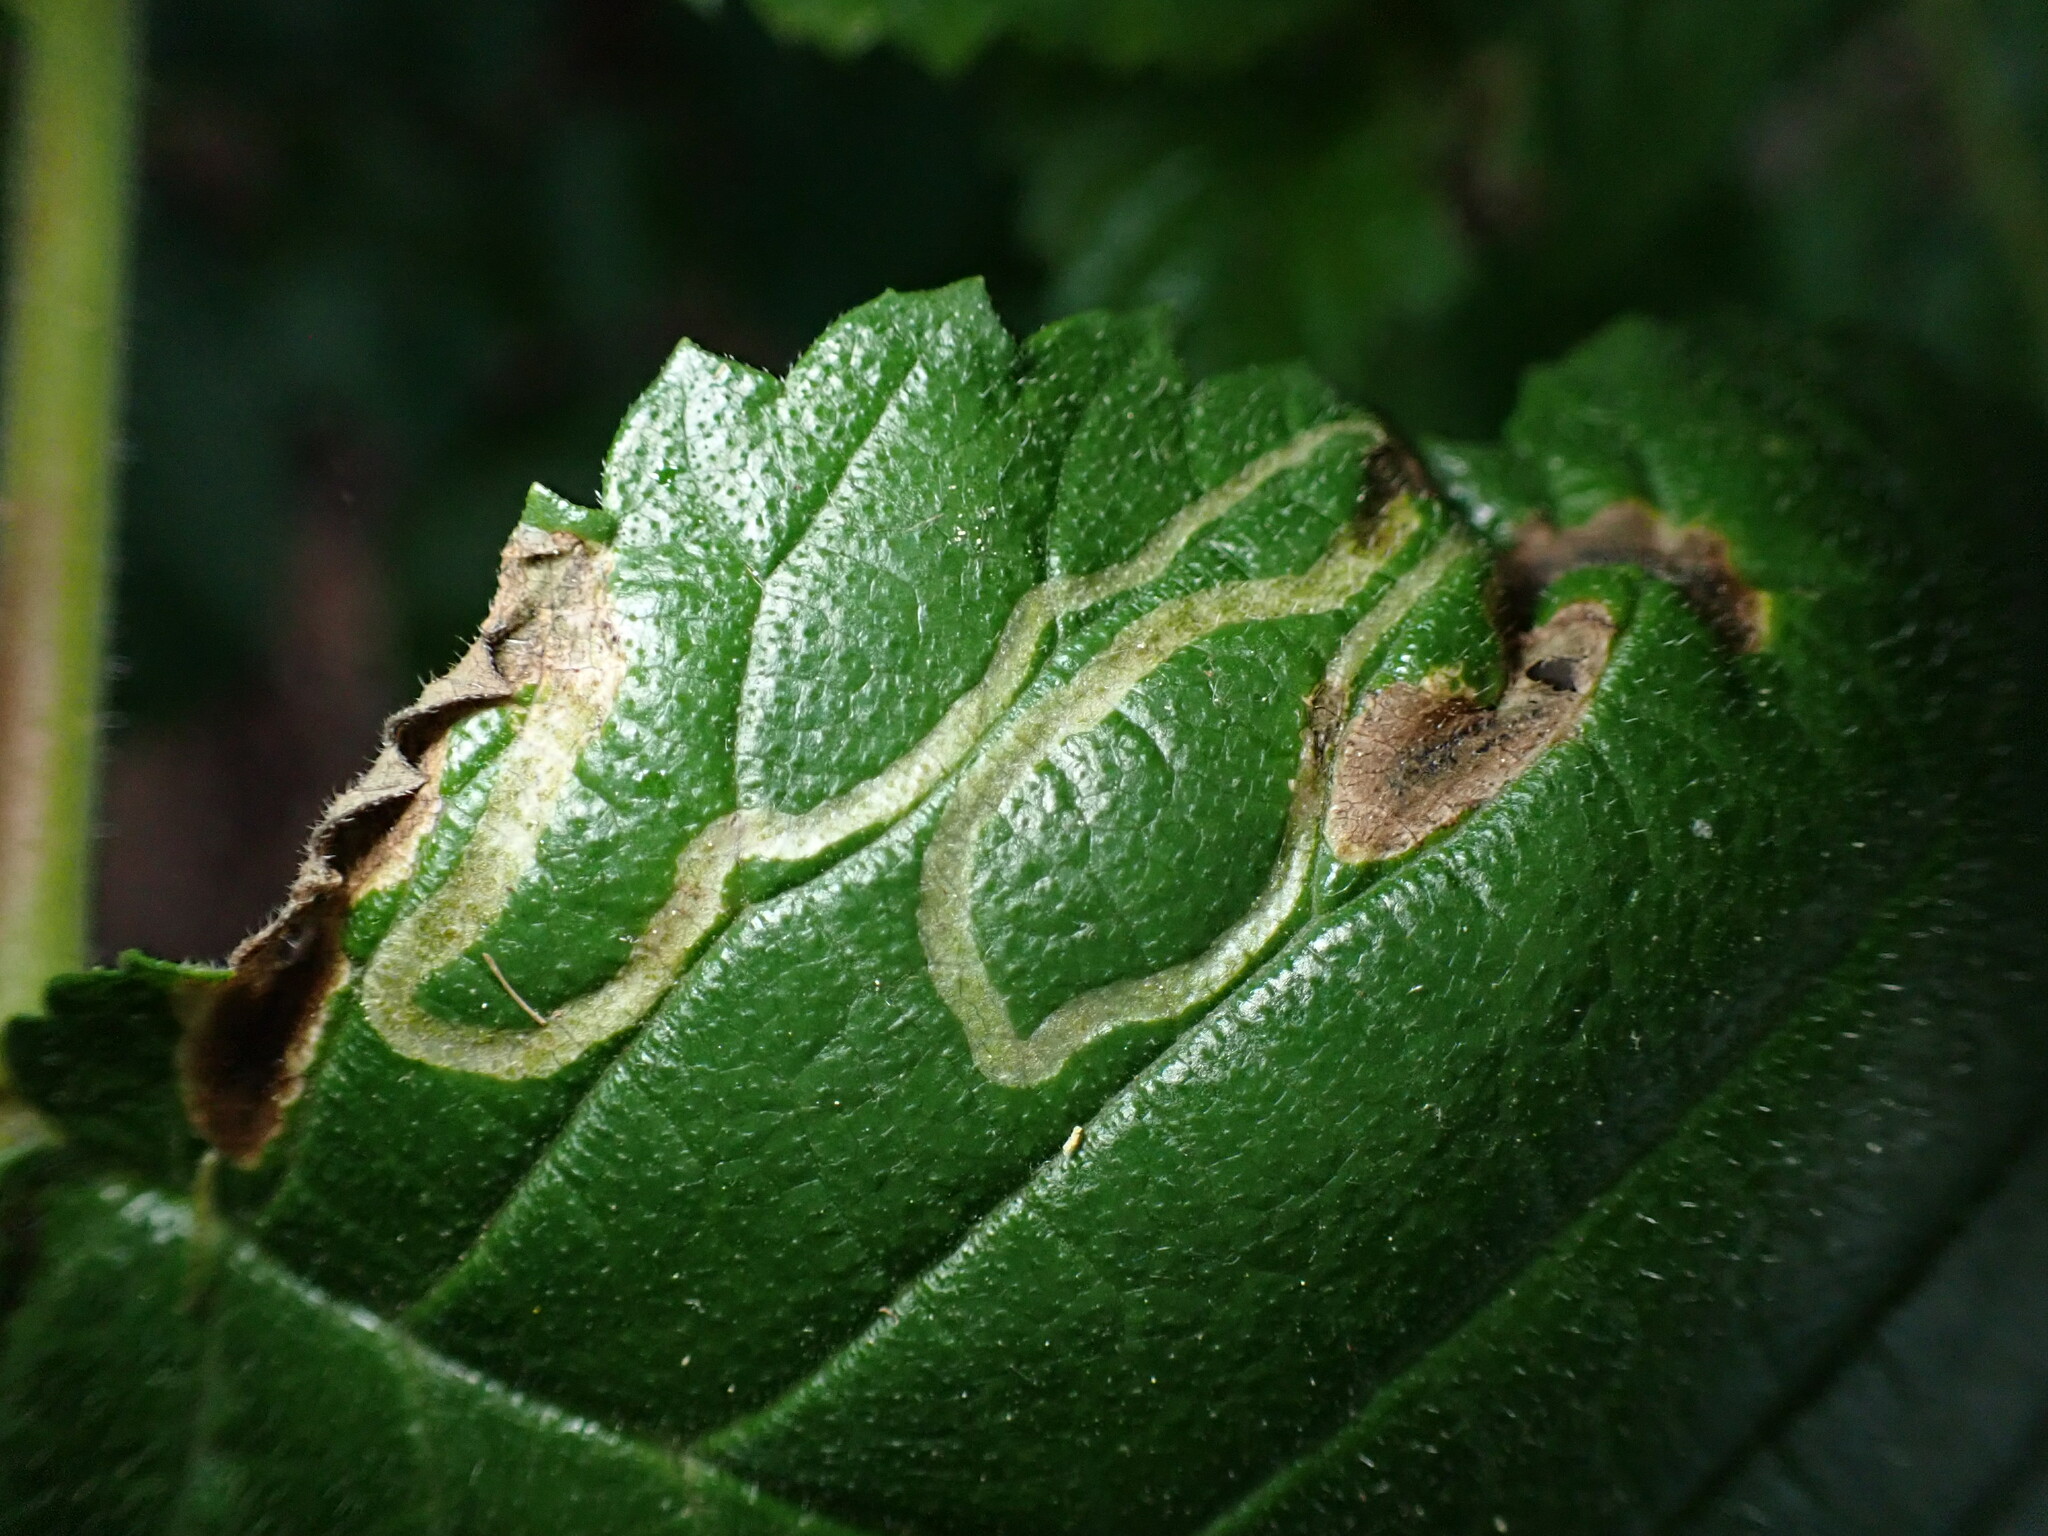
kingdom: Animalia
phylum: Arthropoda
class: Insecta
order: Diptera
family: Agromyzidae
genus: Agromyza
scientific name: Agromyza aristata
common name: Elm agromyzid leafminer
